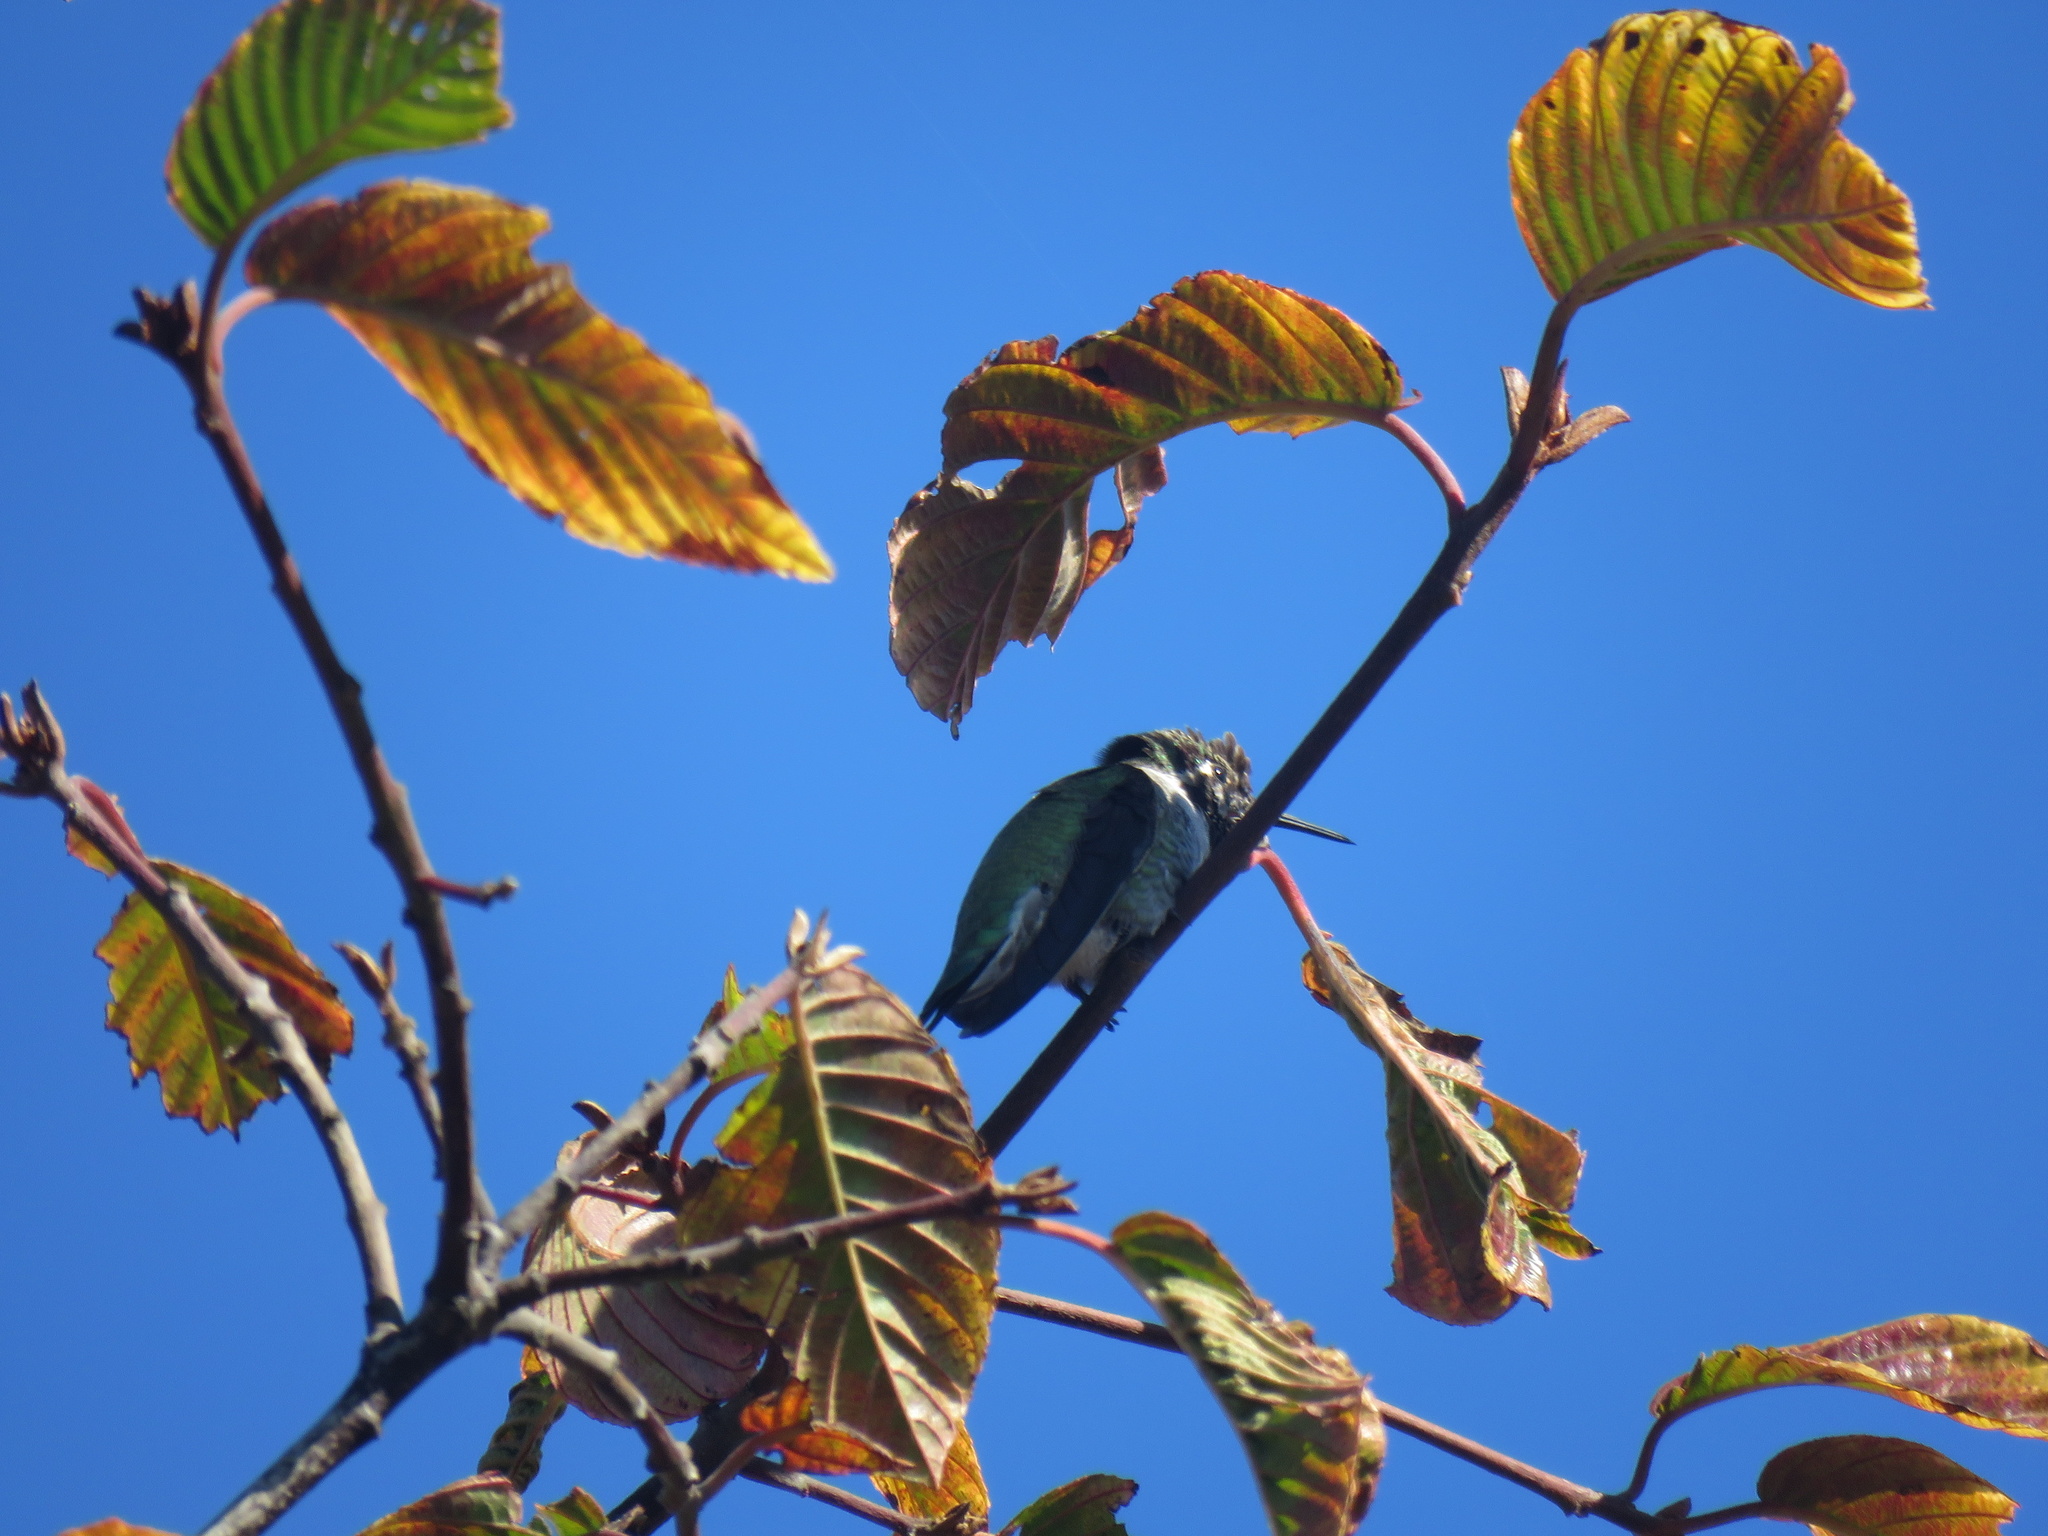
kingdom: Animalia
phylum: Chordata
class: Aves
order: Apodiformes
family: Trochilidae
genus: Calypte
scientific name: Calypte anna
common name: Anna's hummingbird
